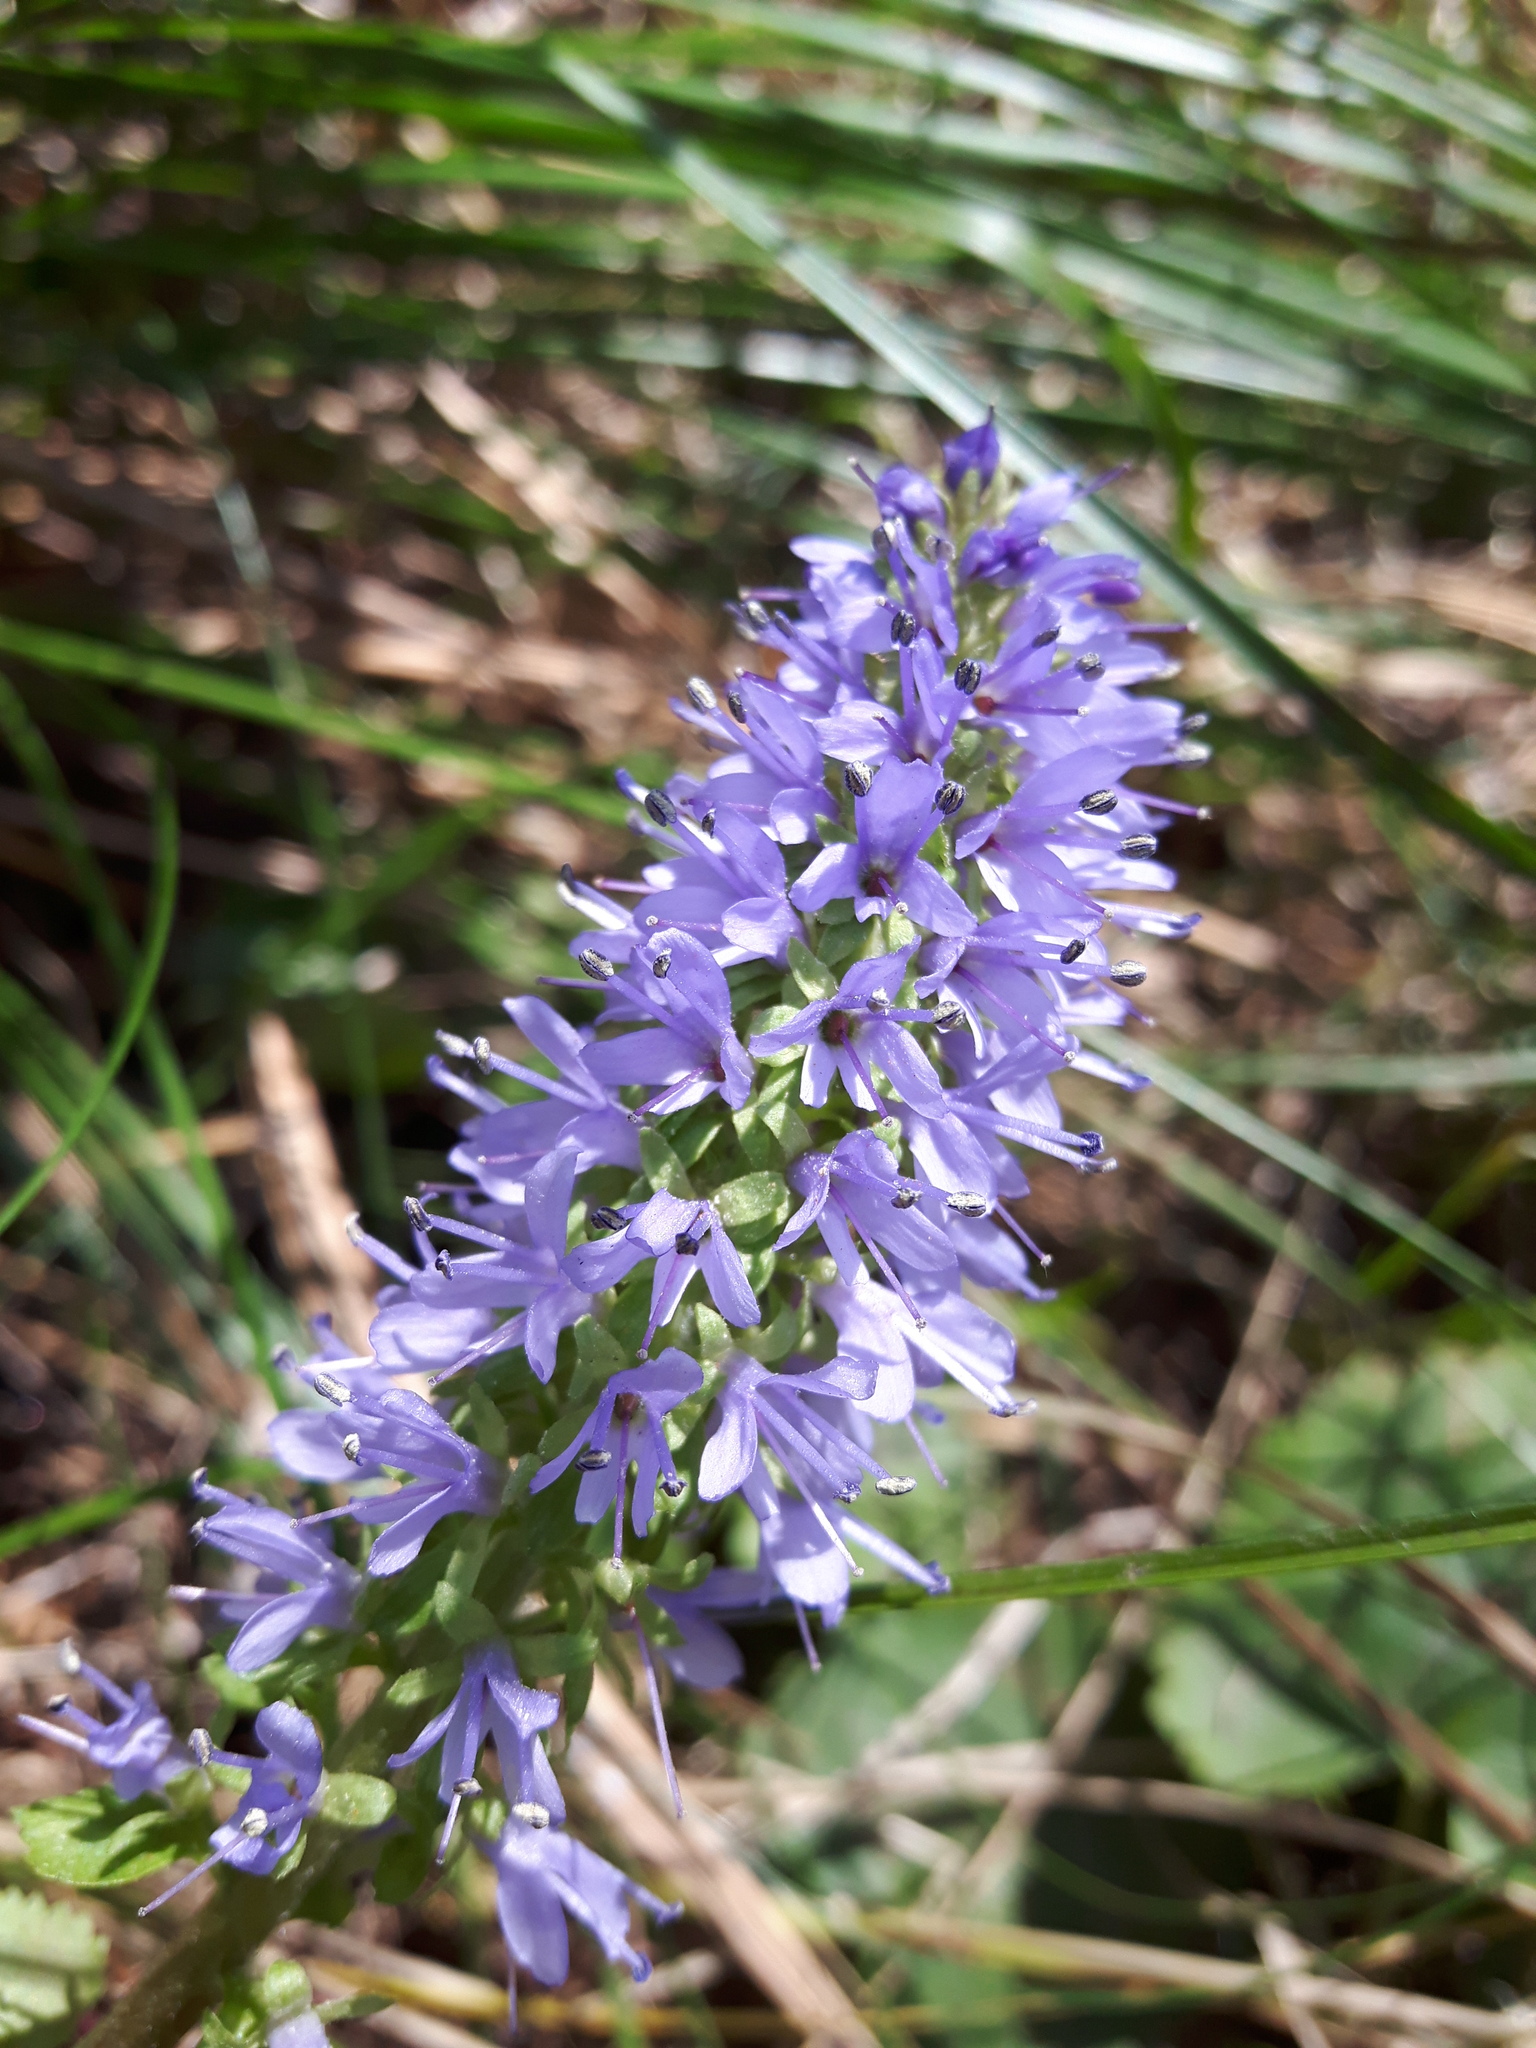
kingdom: Plantae
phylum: Tracheophyta
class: Magnoliopsida
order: Lamiales
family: Plantaginaceae
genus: Synthyris
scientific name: Synthyris missurica
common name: Kitten-tails
